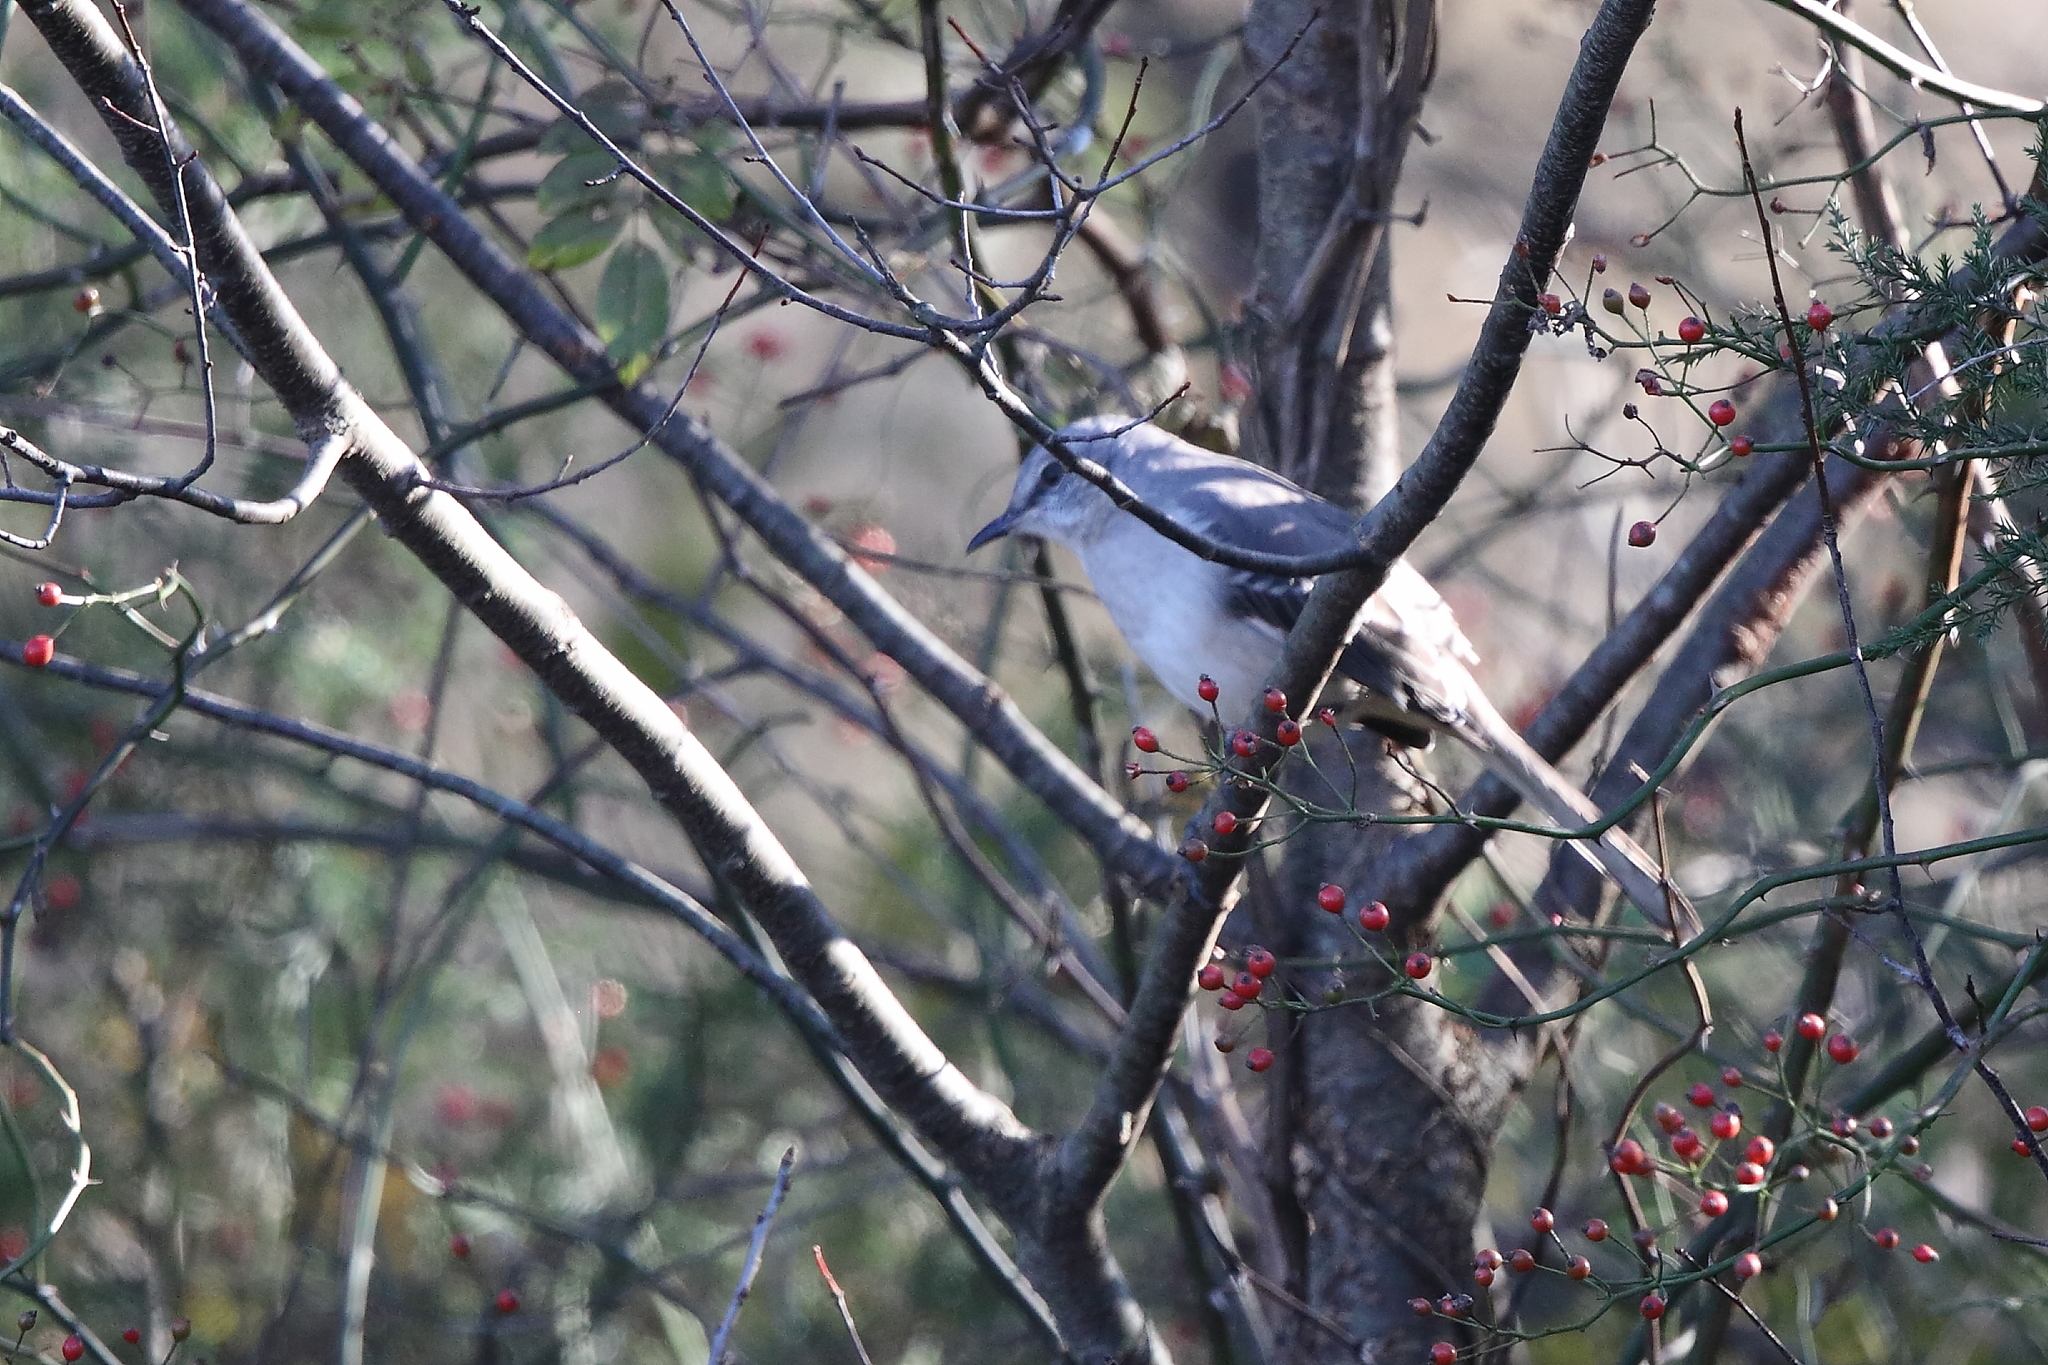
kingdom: Animalia
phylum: Chordata
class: Aves
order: Passeriformes
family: Mimidae
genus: Mimus
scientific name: Mimus polyglottos
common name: Northern mockingbird
